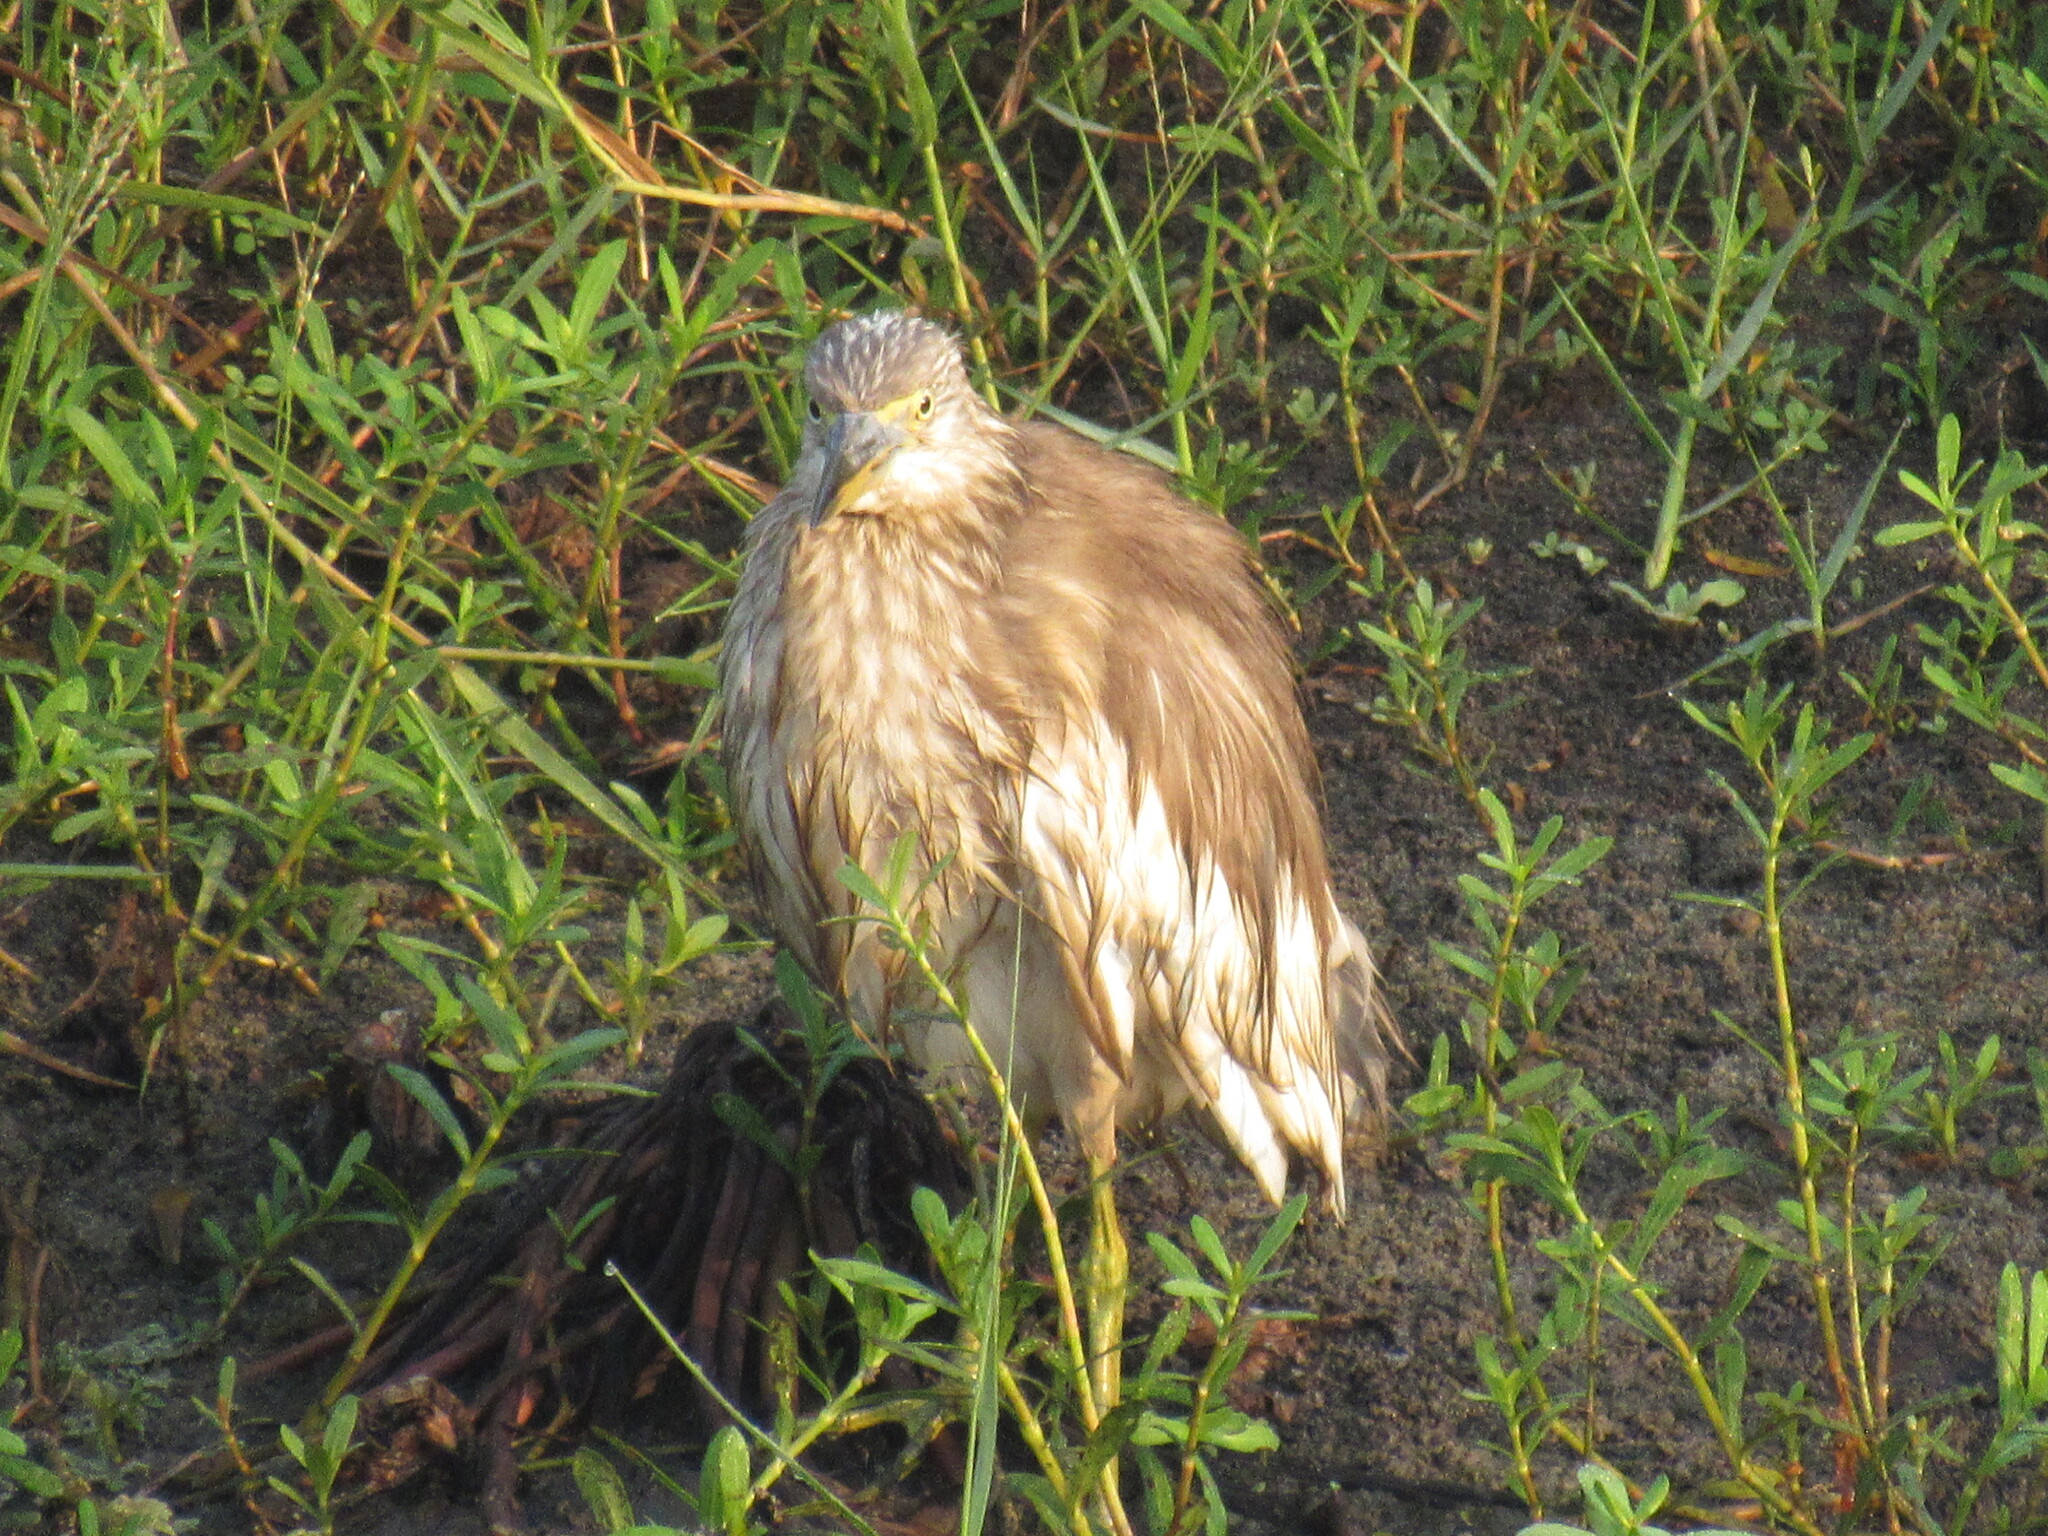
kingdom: Animalia
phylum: Chordata
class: Aves
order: Pelecaniformes
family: Ardeidae
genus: Ardeola
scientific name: Ardeola grayii
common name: Indian pond heron
